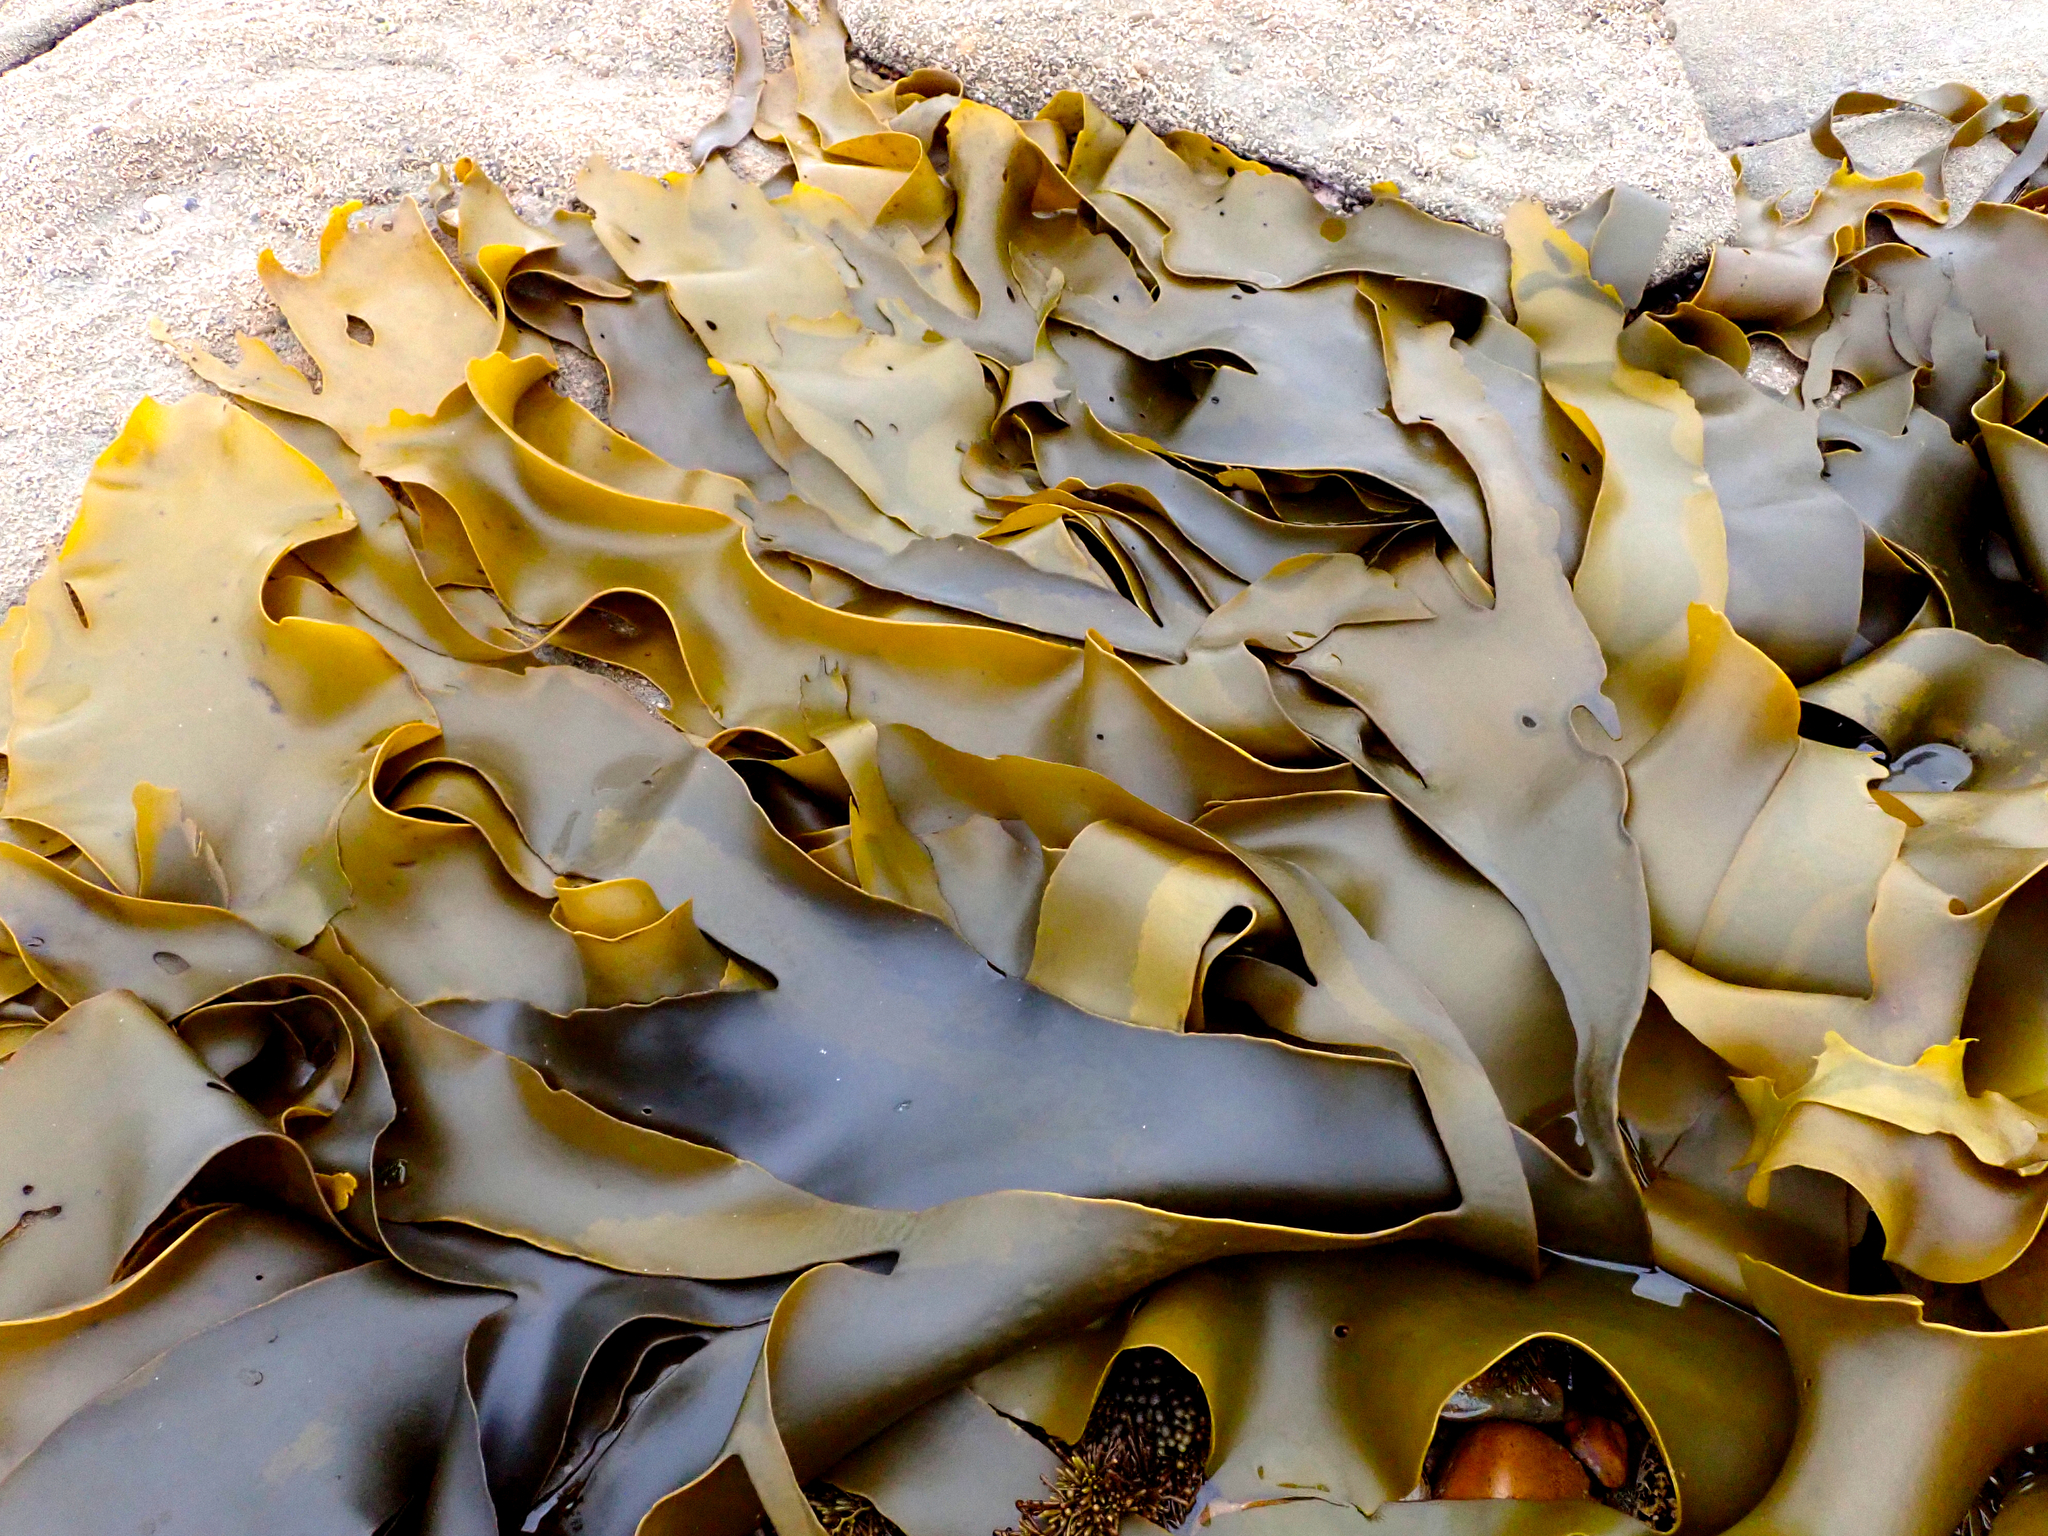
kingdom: Chromista
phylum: Ochrophyta
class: Phaeophyceae
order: Fucales
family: Durvillaeaceae
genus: Durvillaea
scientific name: Durvillaea poha
